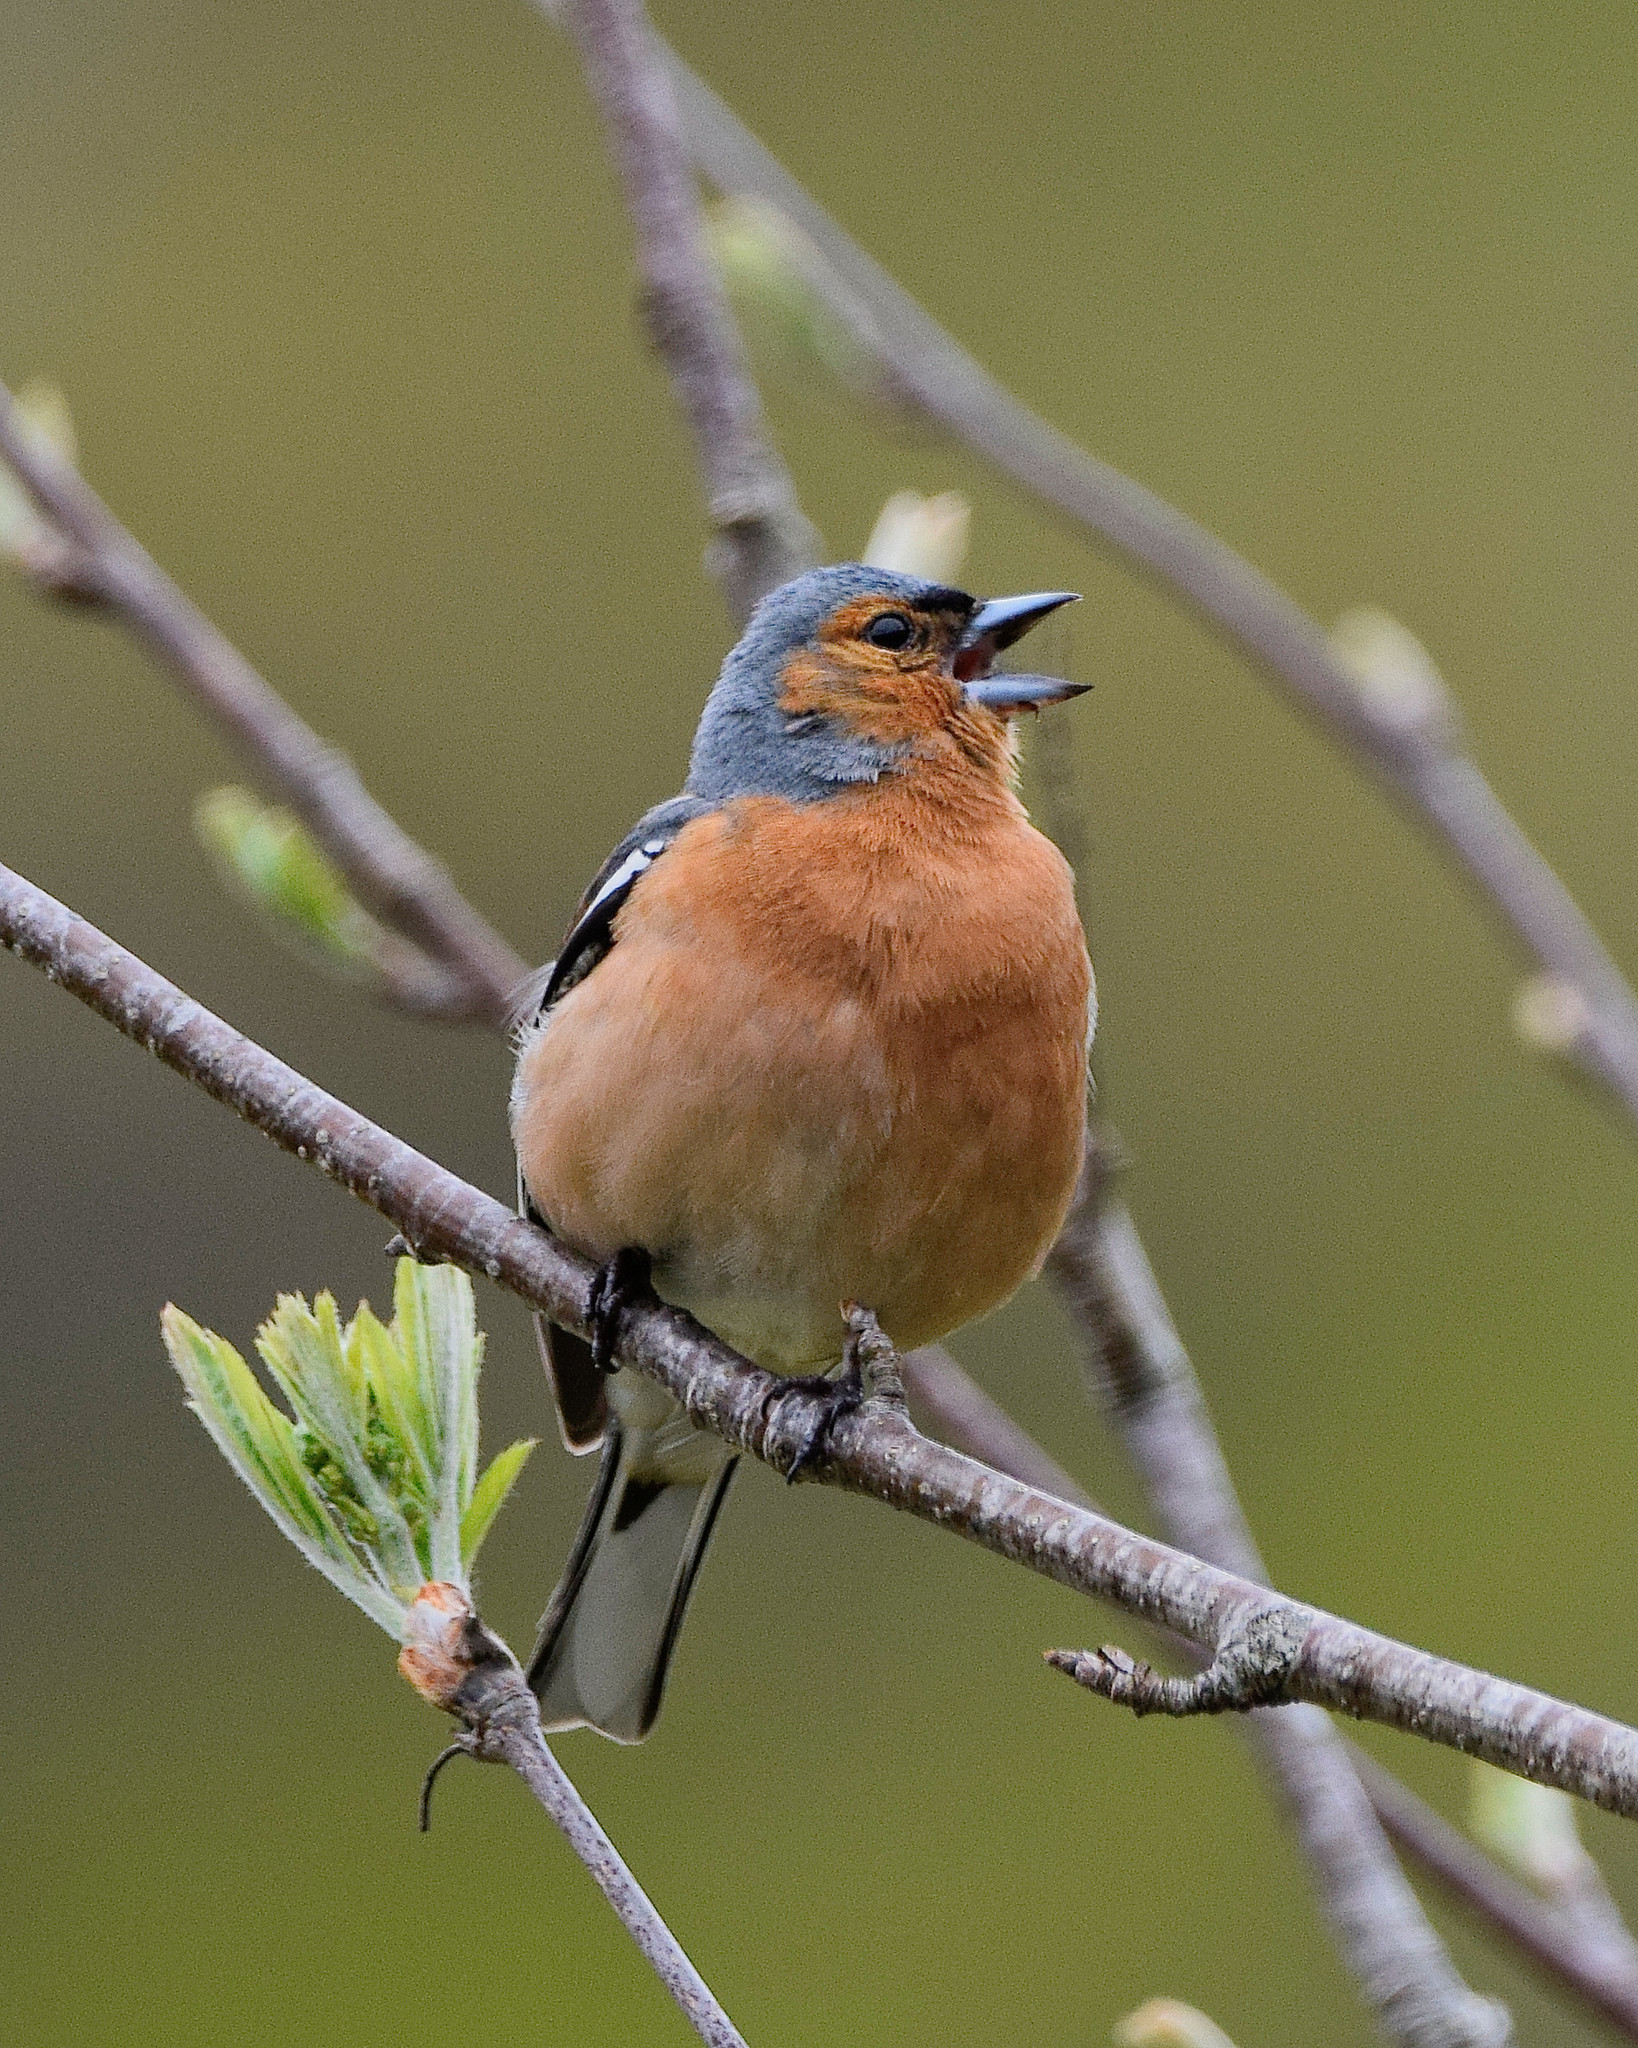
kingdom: Animalia
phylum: Chordata
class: Aves
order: Passeriformes
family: Fringillidae
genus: Fringilla
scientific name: Fringilla coelebs
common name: Common chaffinch
